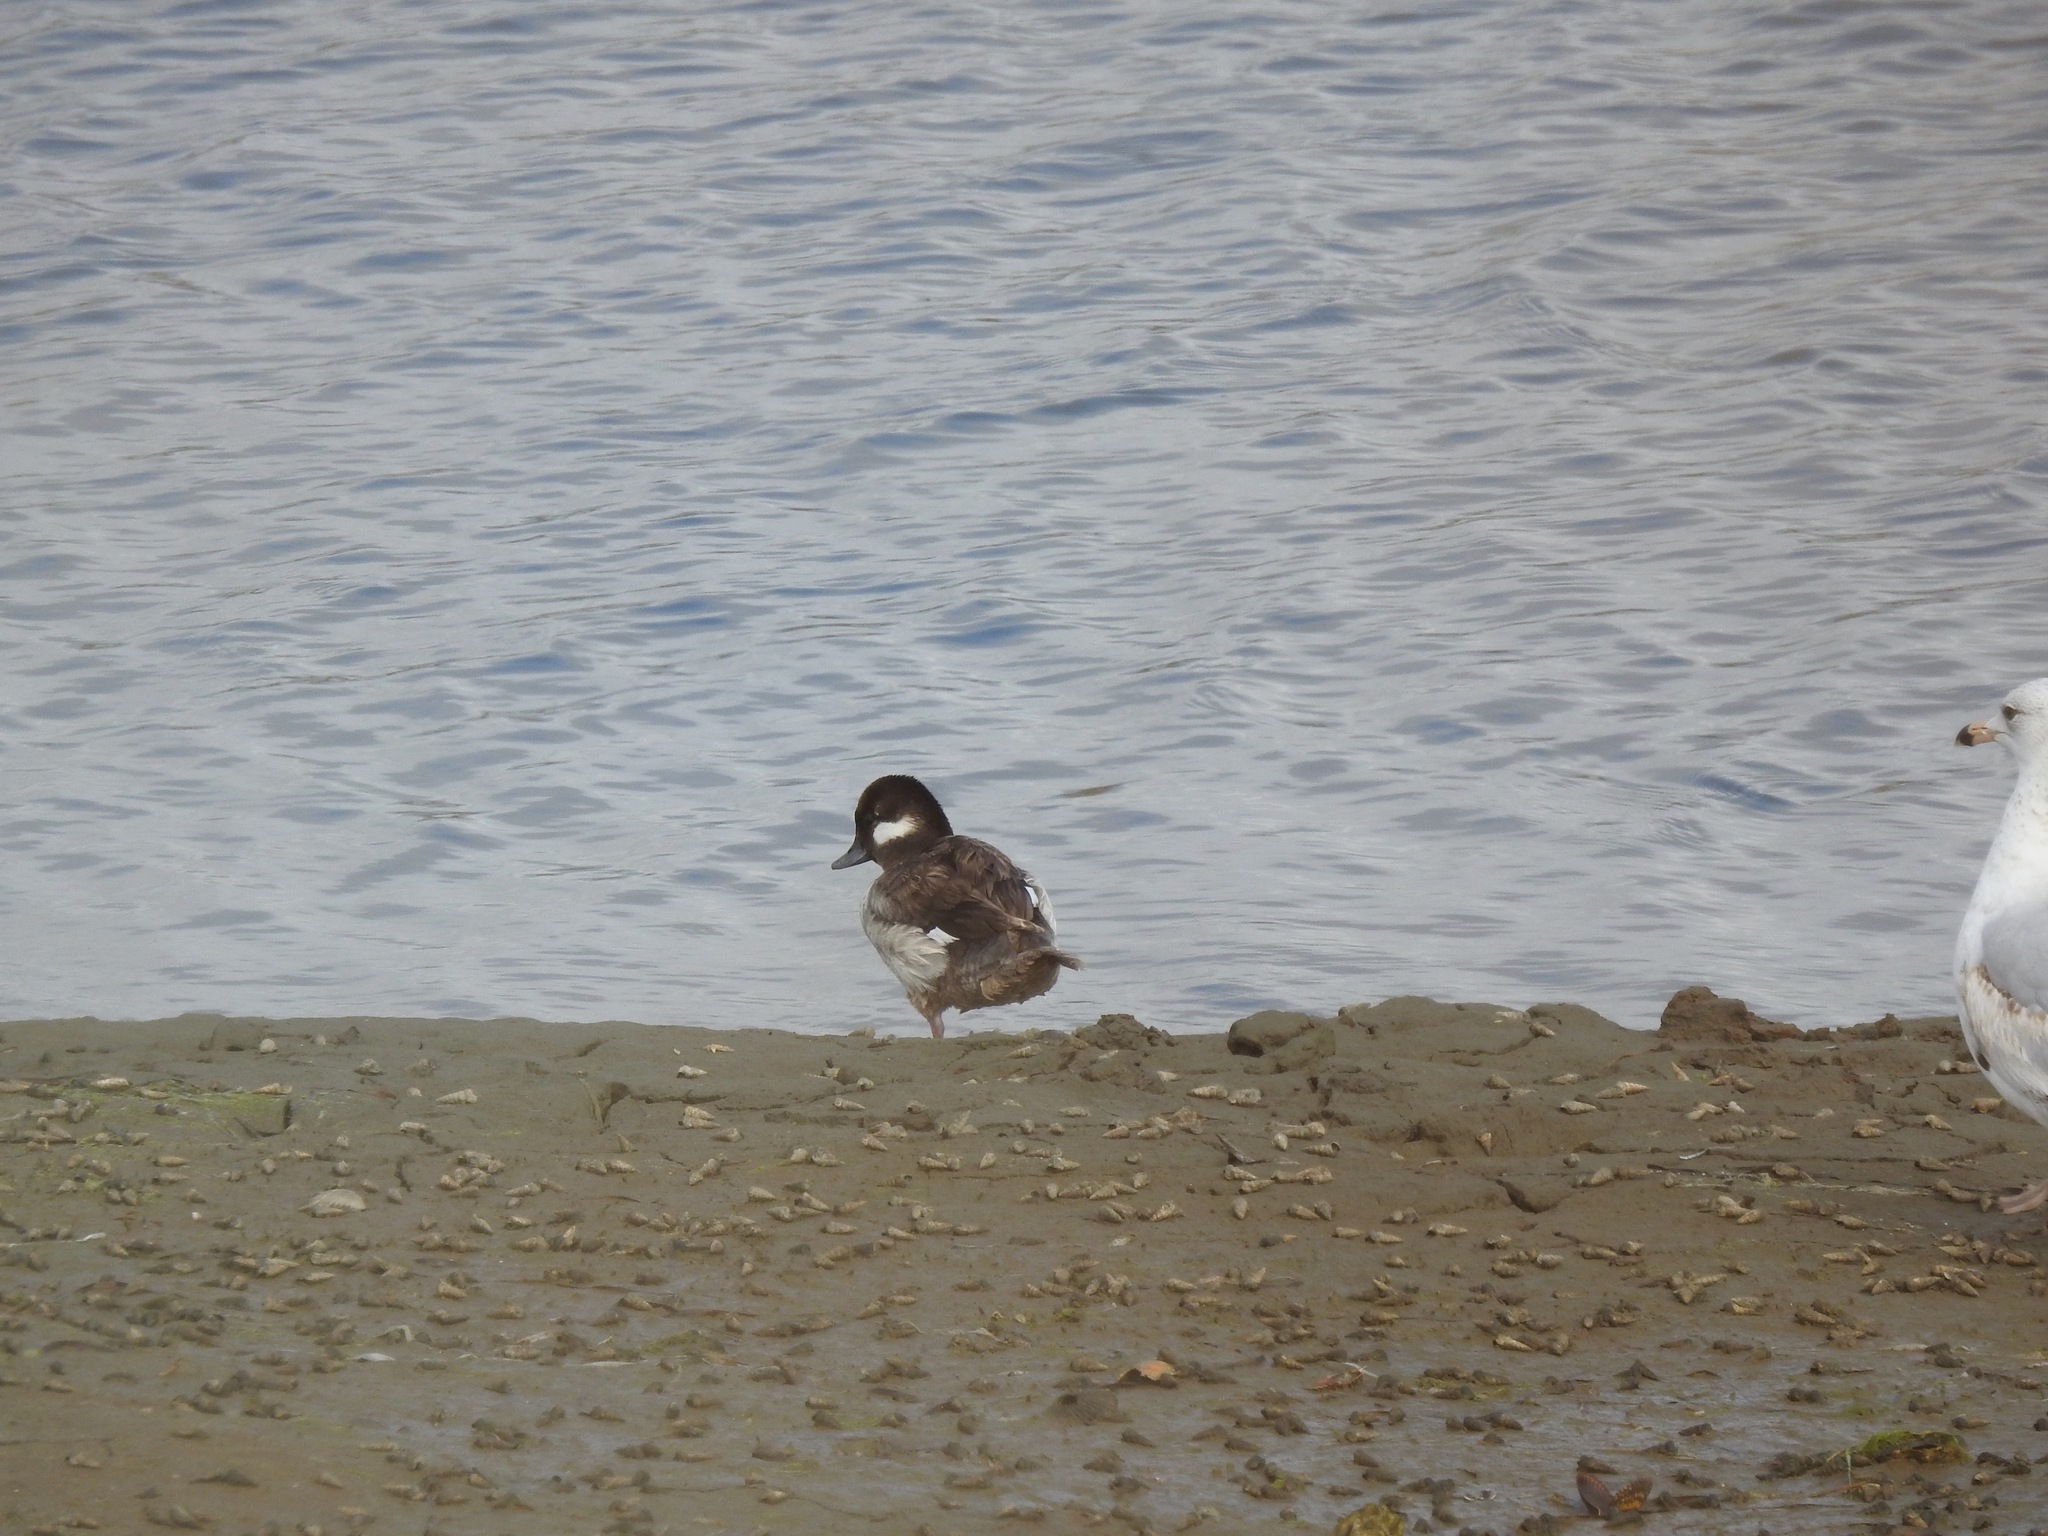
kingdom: Animalia
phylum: Chordata
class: Aves
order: Anseriformes
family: Anatidae
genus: Bucephala
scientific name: Bucephala albeola
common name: Bufflehead
